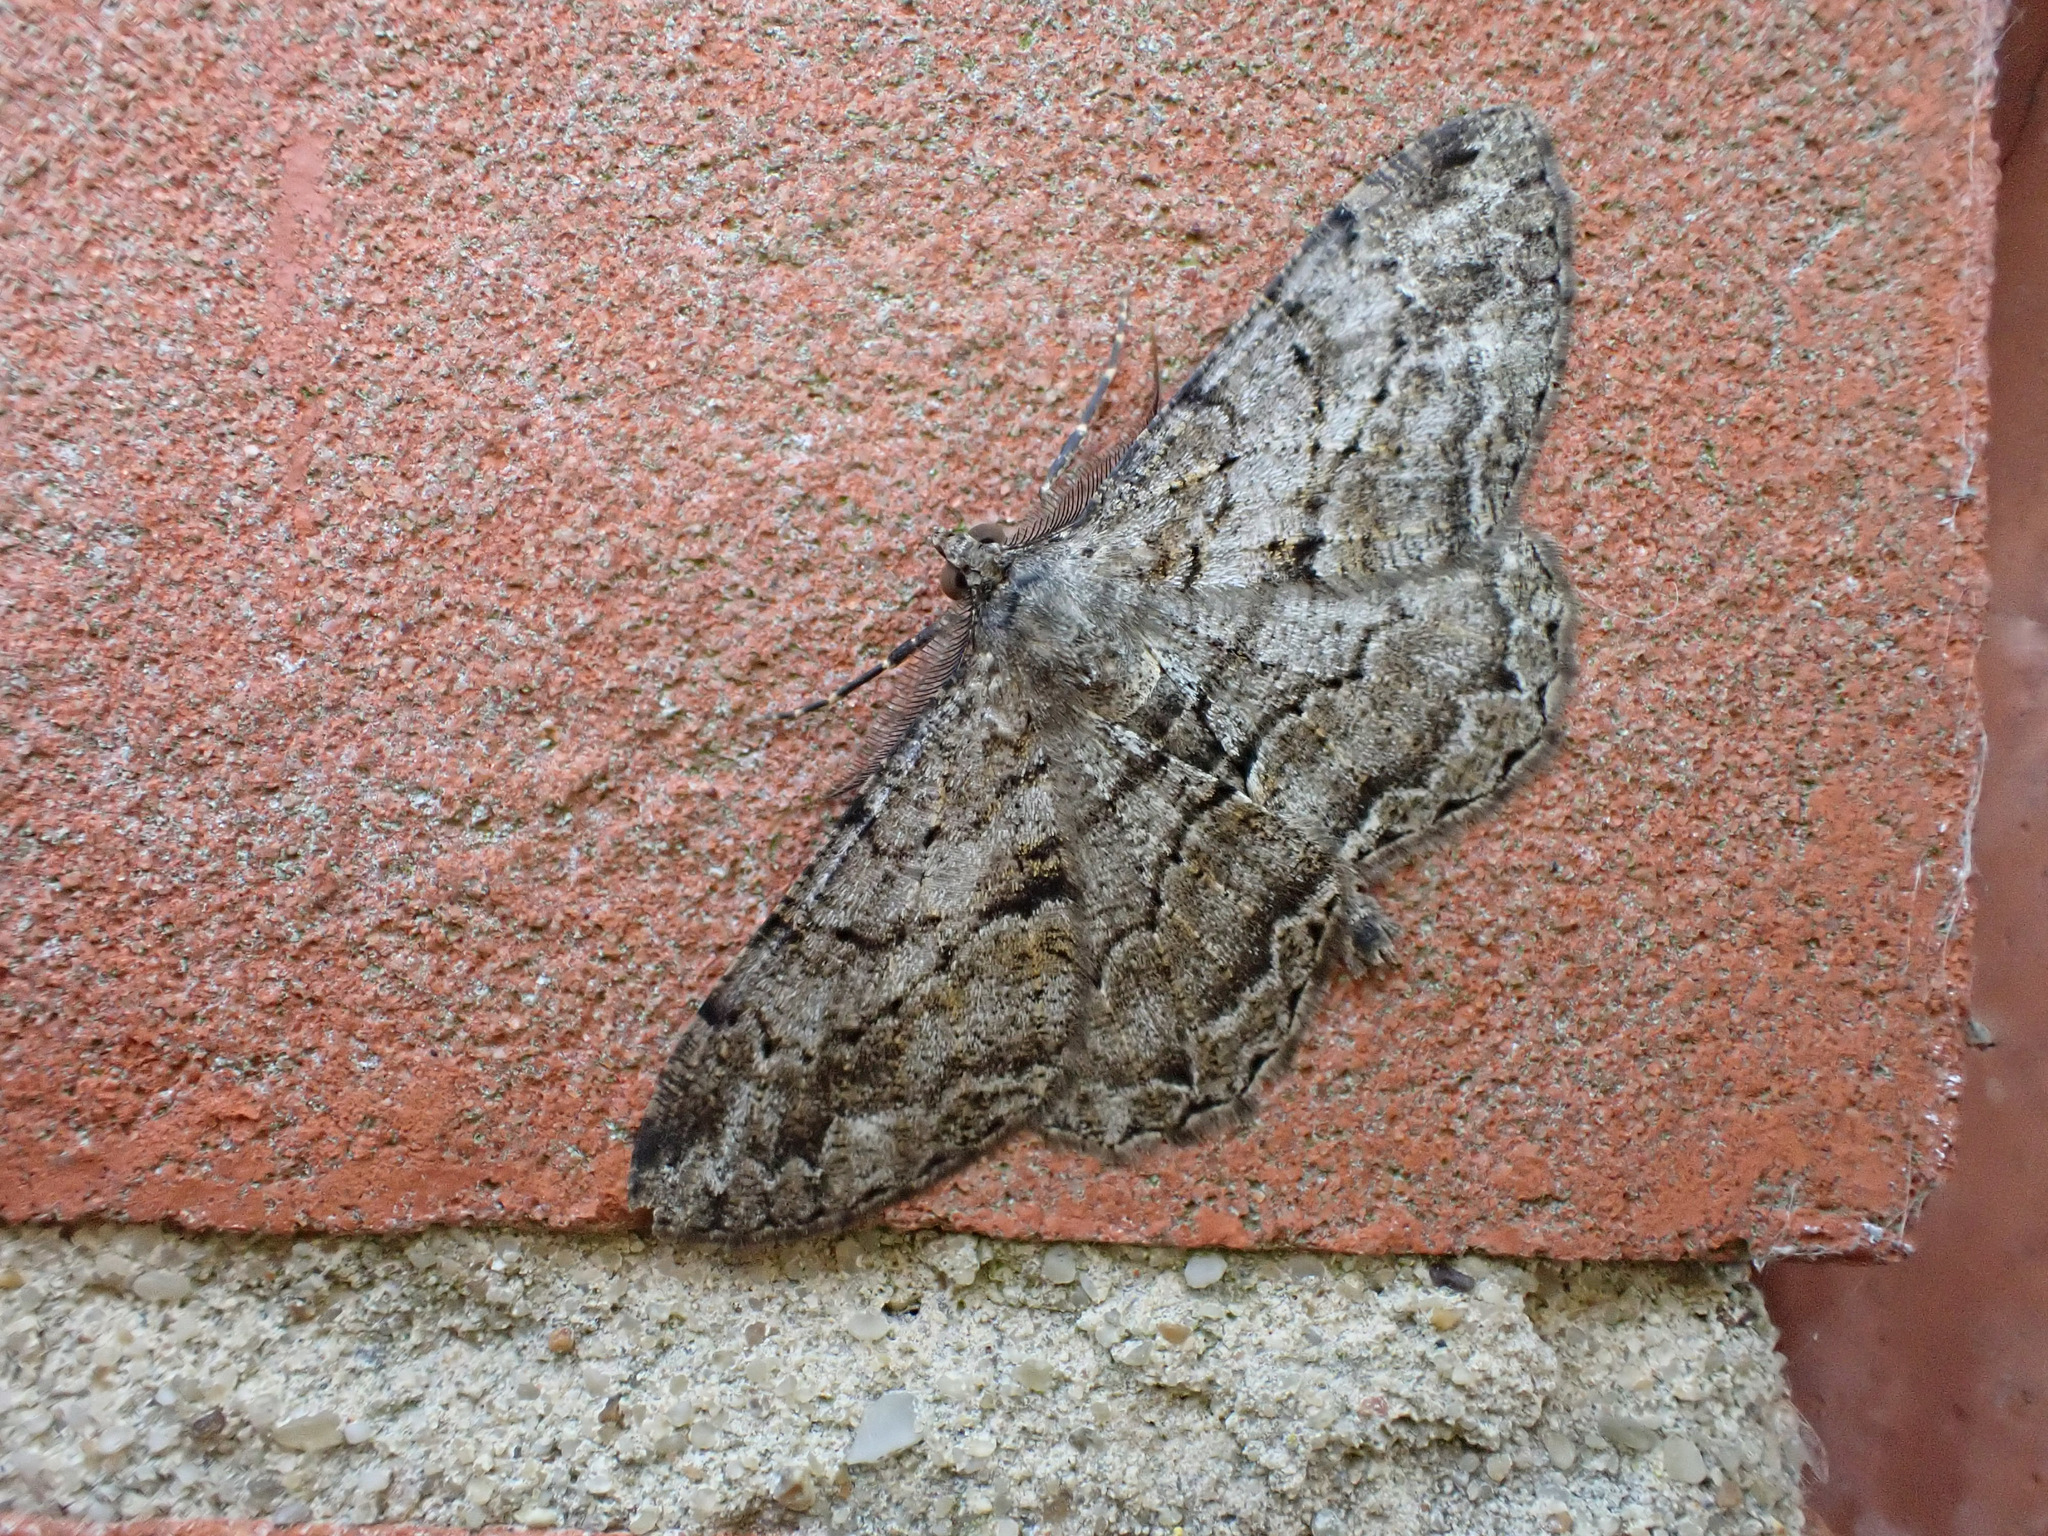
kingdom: Animalia
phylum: Arthropoda
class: Insecta
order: Lepidoptera
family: Geometridae
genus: Peribatodes
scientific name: Peribatodes rhomboidaria
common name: Willow beauty
